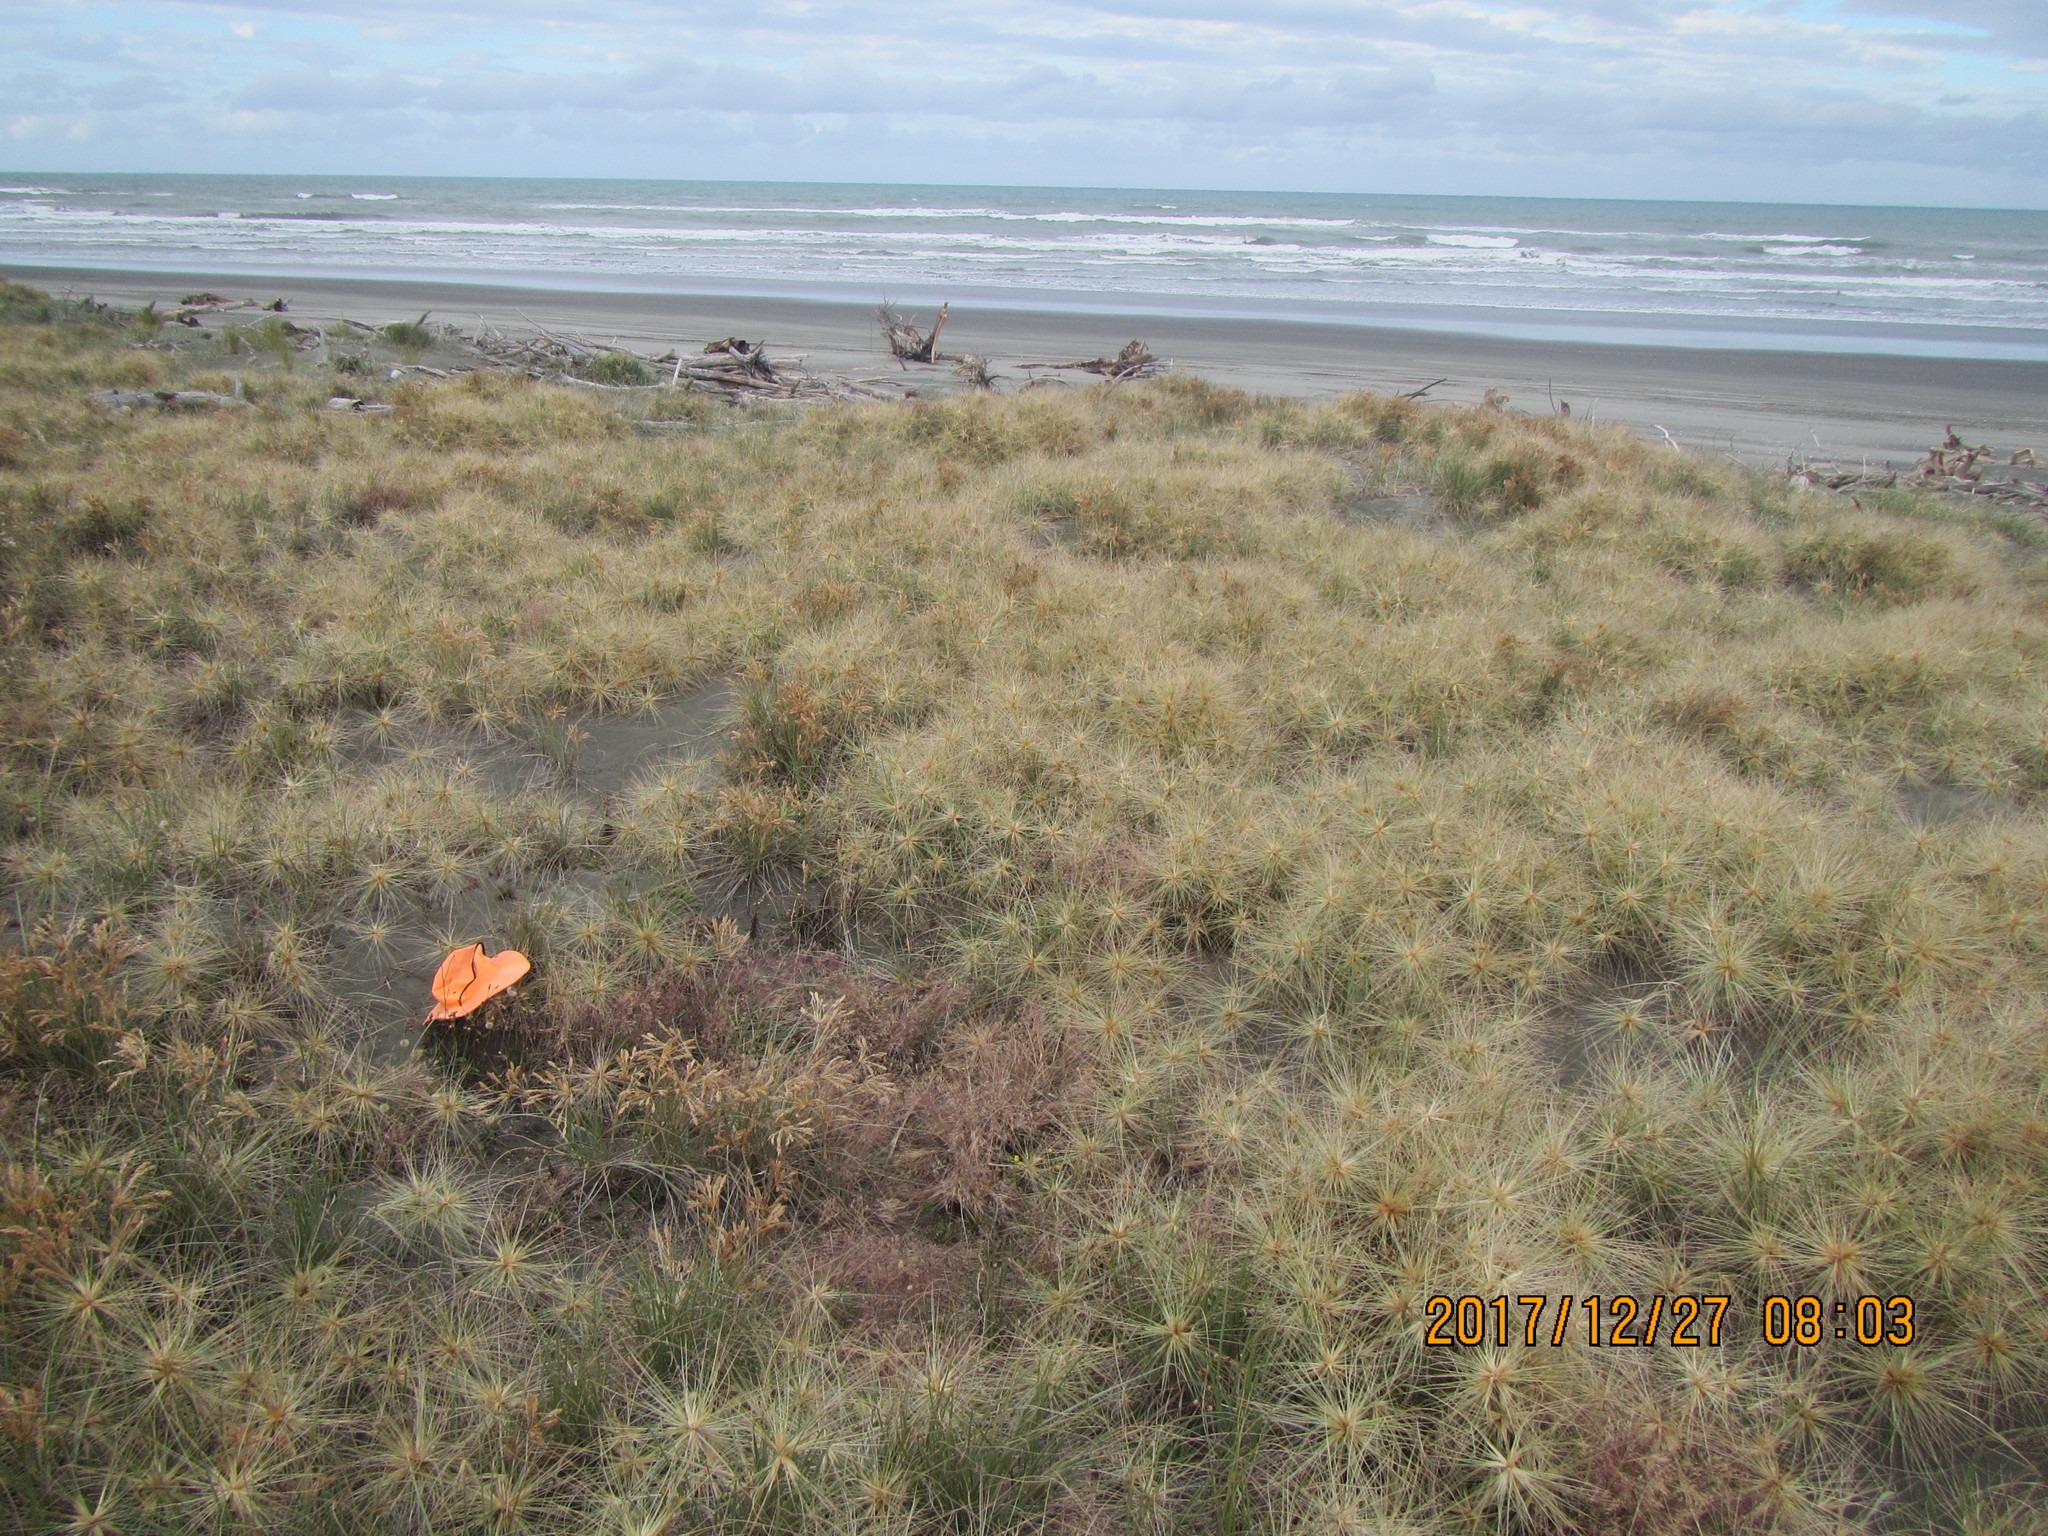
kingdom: Plantae
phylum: Tracheophyta
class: Liliopsida
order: Poales
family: Poaceae
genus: Lachnagrostis
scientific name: Lachnagrostis billardierei
